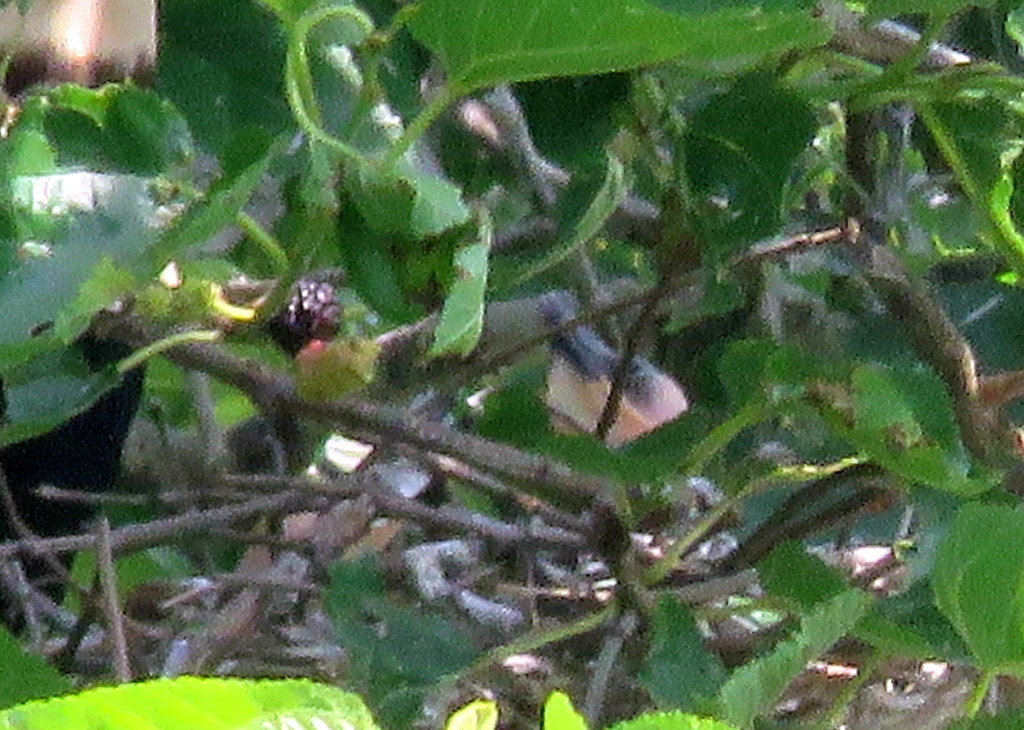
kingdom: Animalia
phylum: Chordata
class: Aves
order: Suliformes
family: Anhingidae
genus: Anhinga
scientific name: Anhinga anhinga
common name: Anhinga
